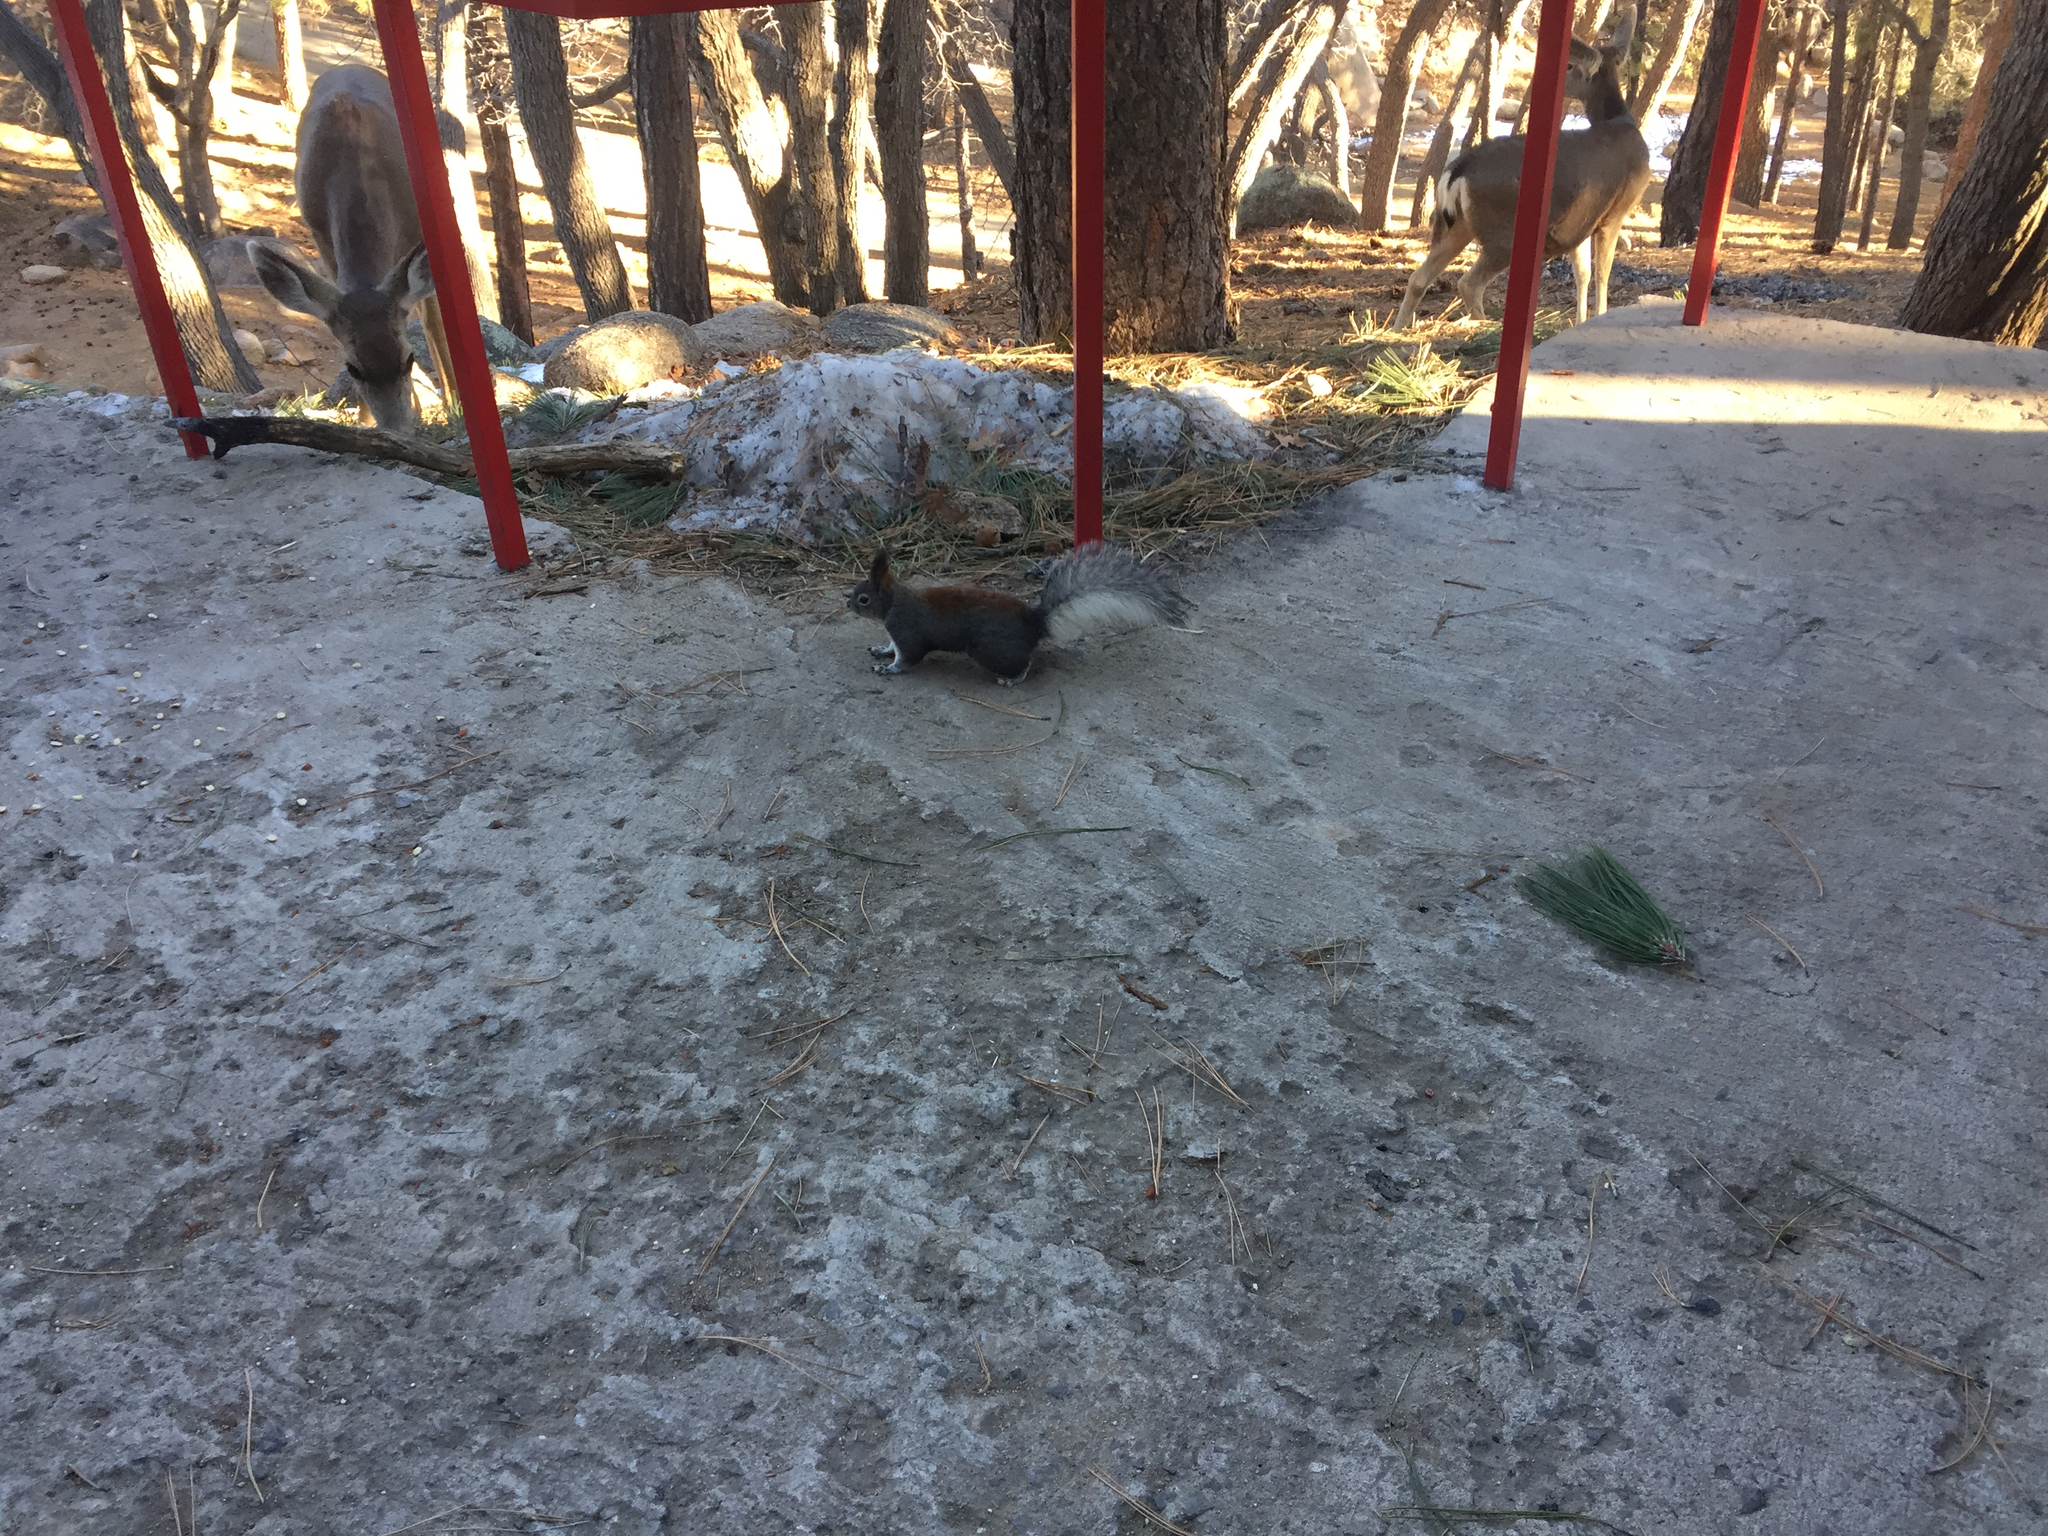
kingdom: Animalia
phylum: Chordata
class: Mammalia
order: Rodentia
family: Sciuridae
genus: Sciurus
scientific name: Sciurus aberti
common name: Abert's squirrel
